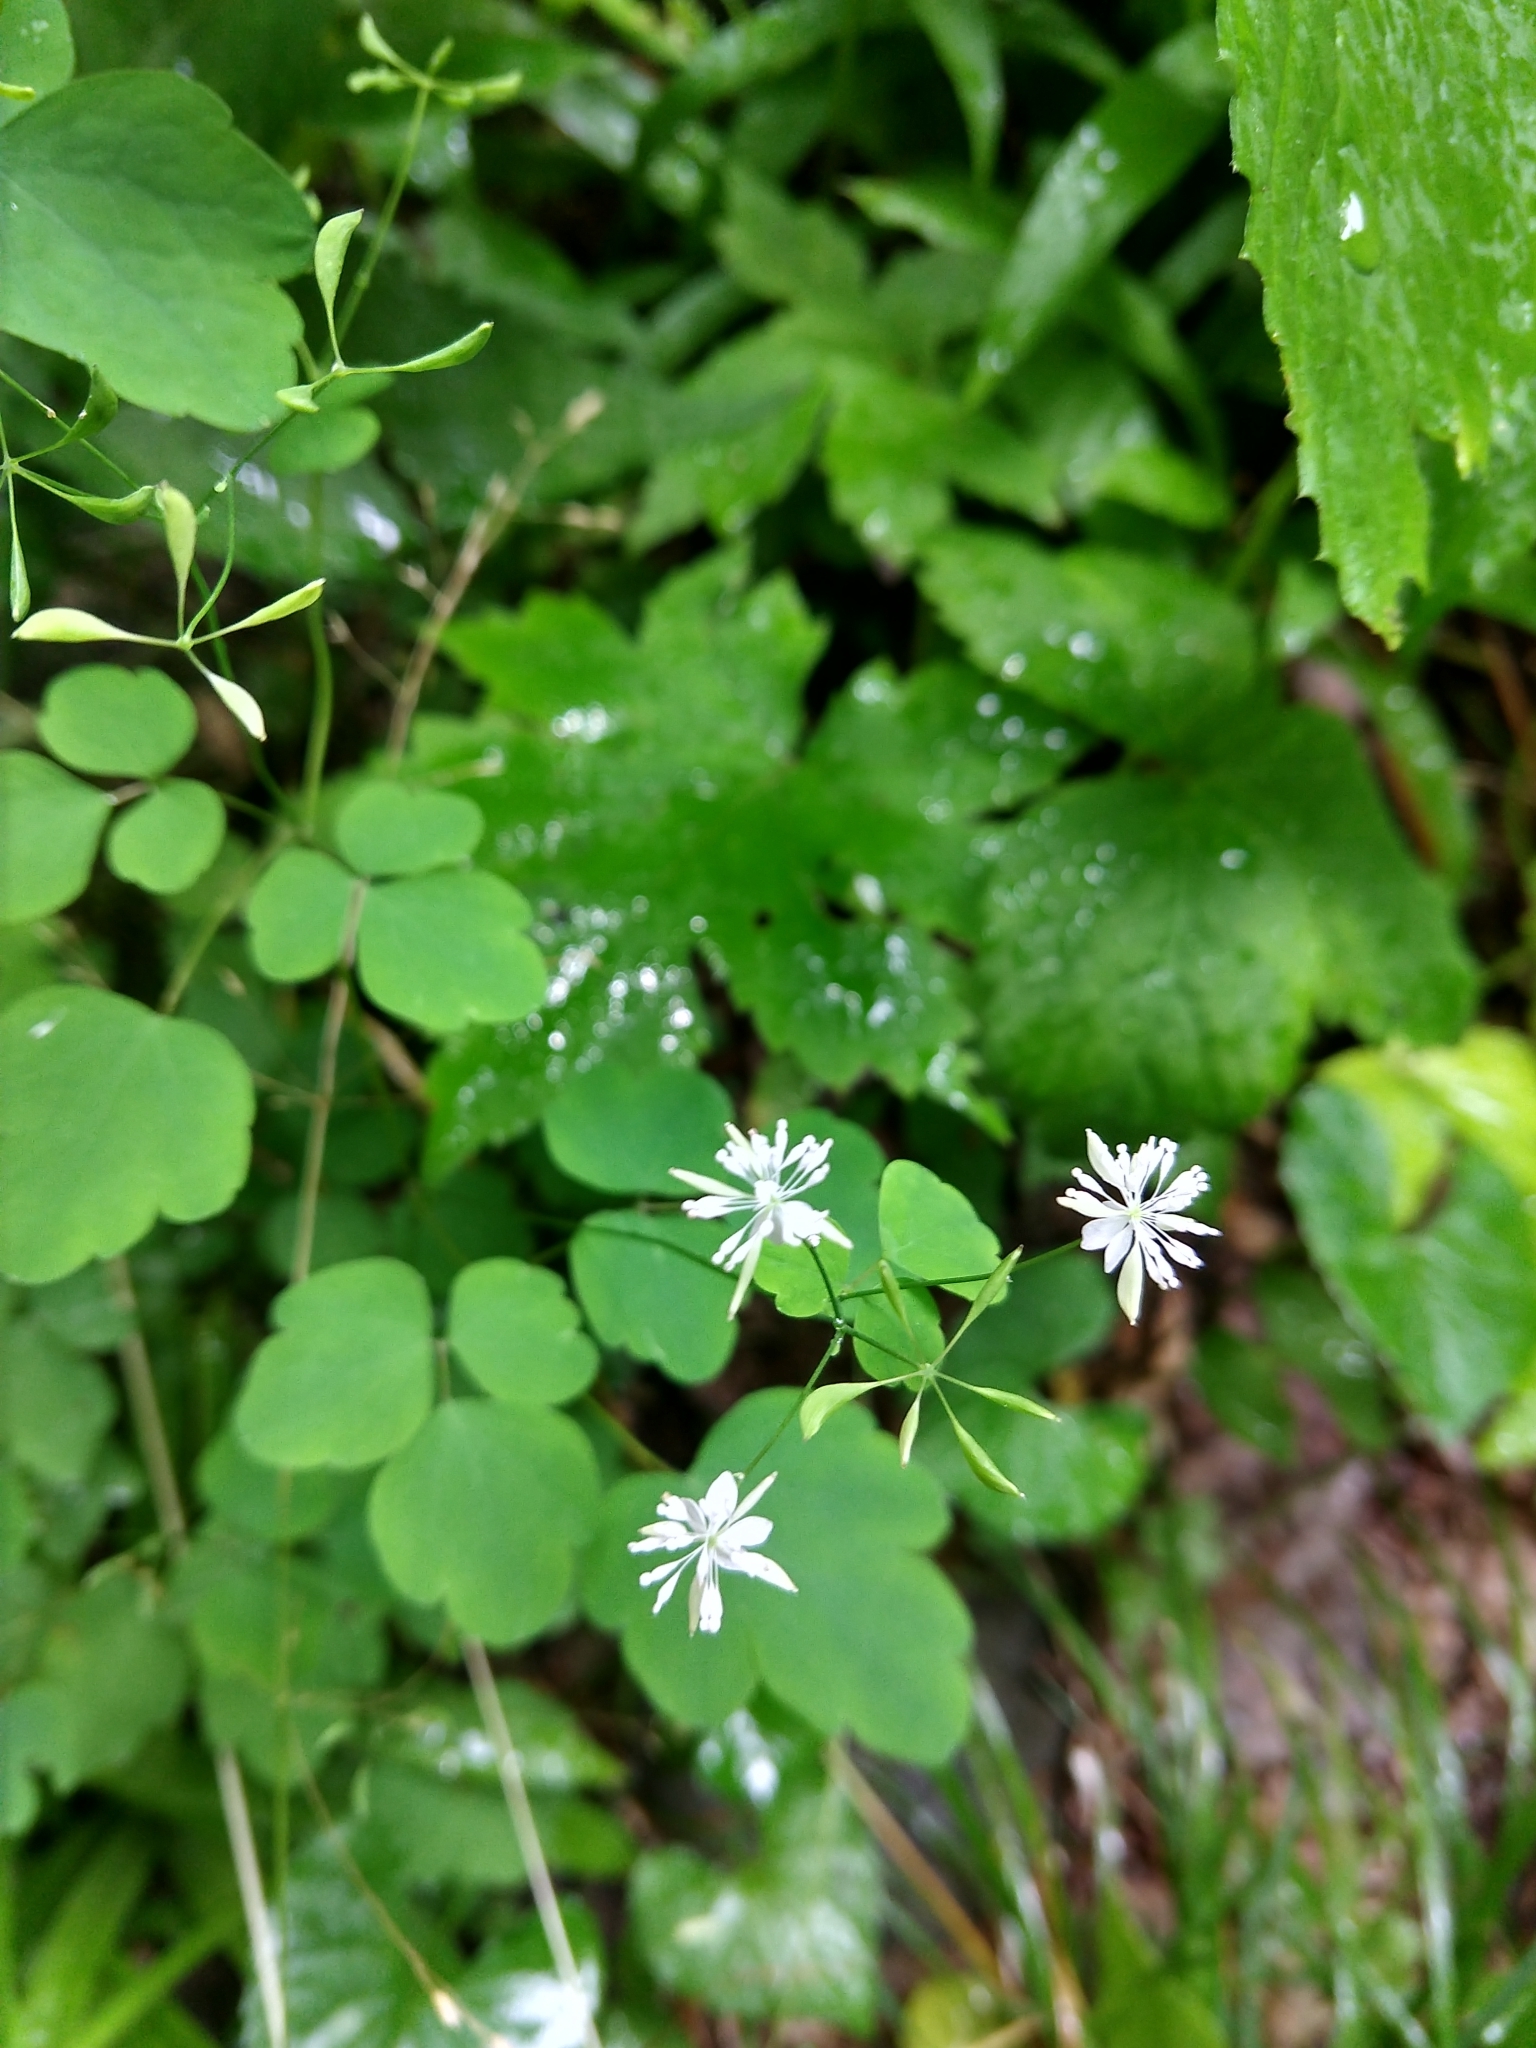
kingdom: Plantae
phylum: Tracheophyta
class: Magnoliopsida
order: Ranunculales
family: Ranunculaceae
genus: Thalictrum
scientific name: Thalictrum clavatum
